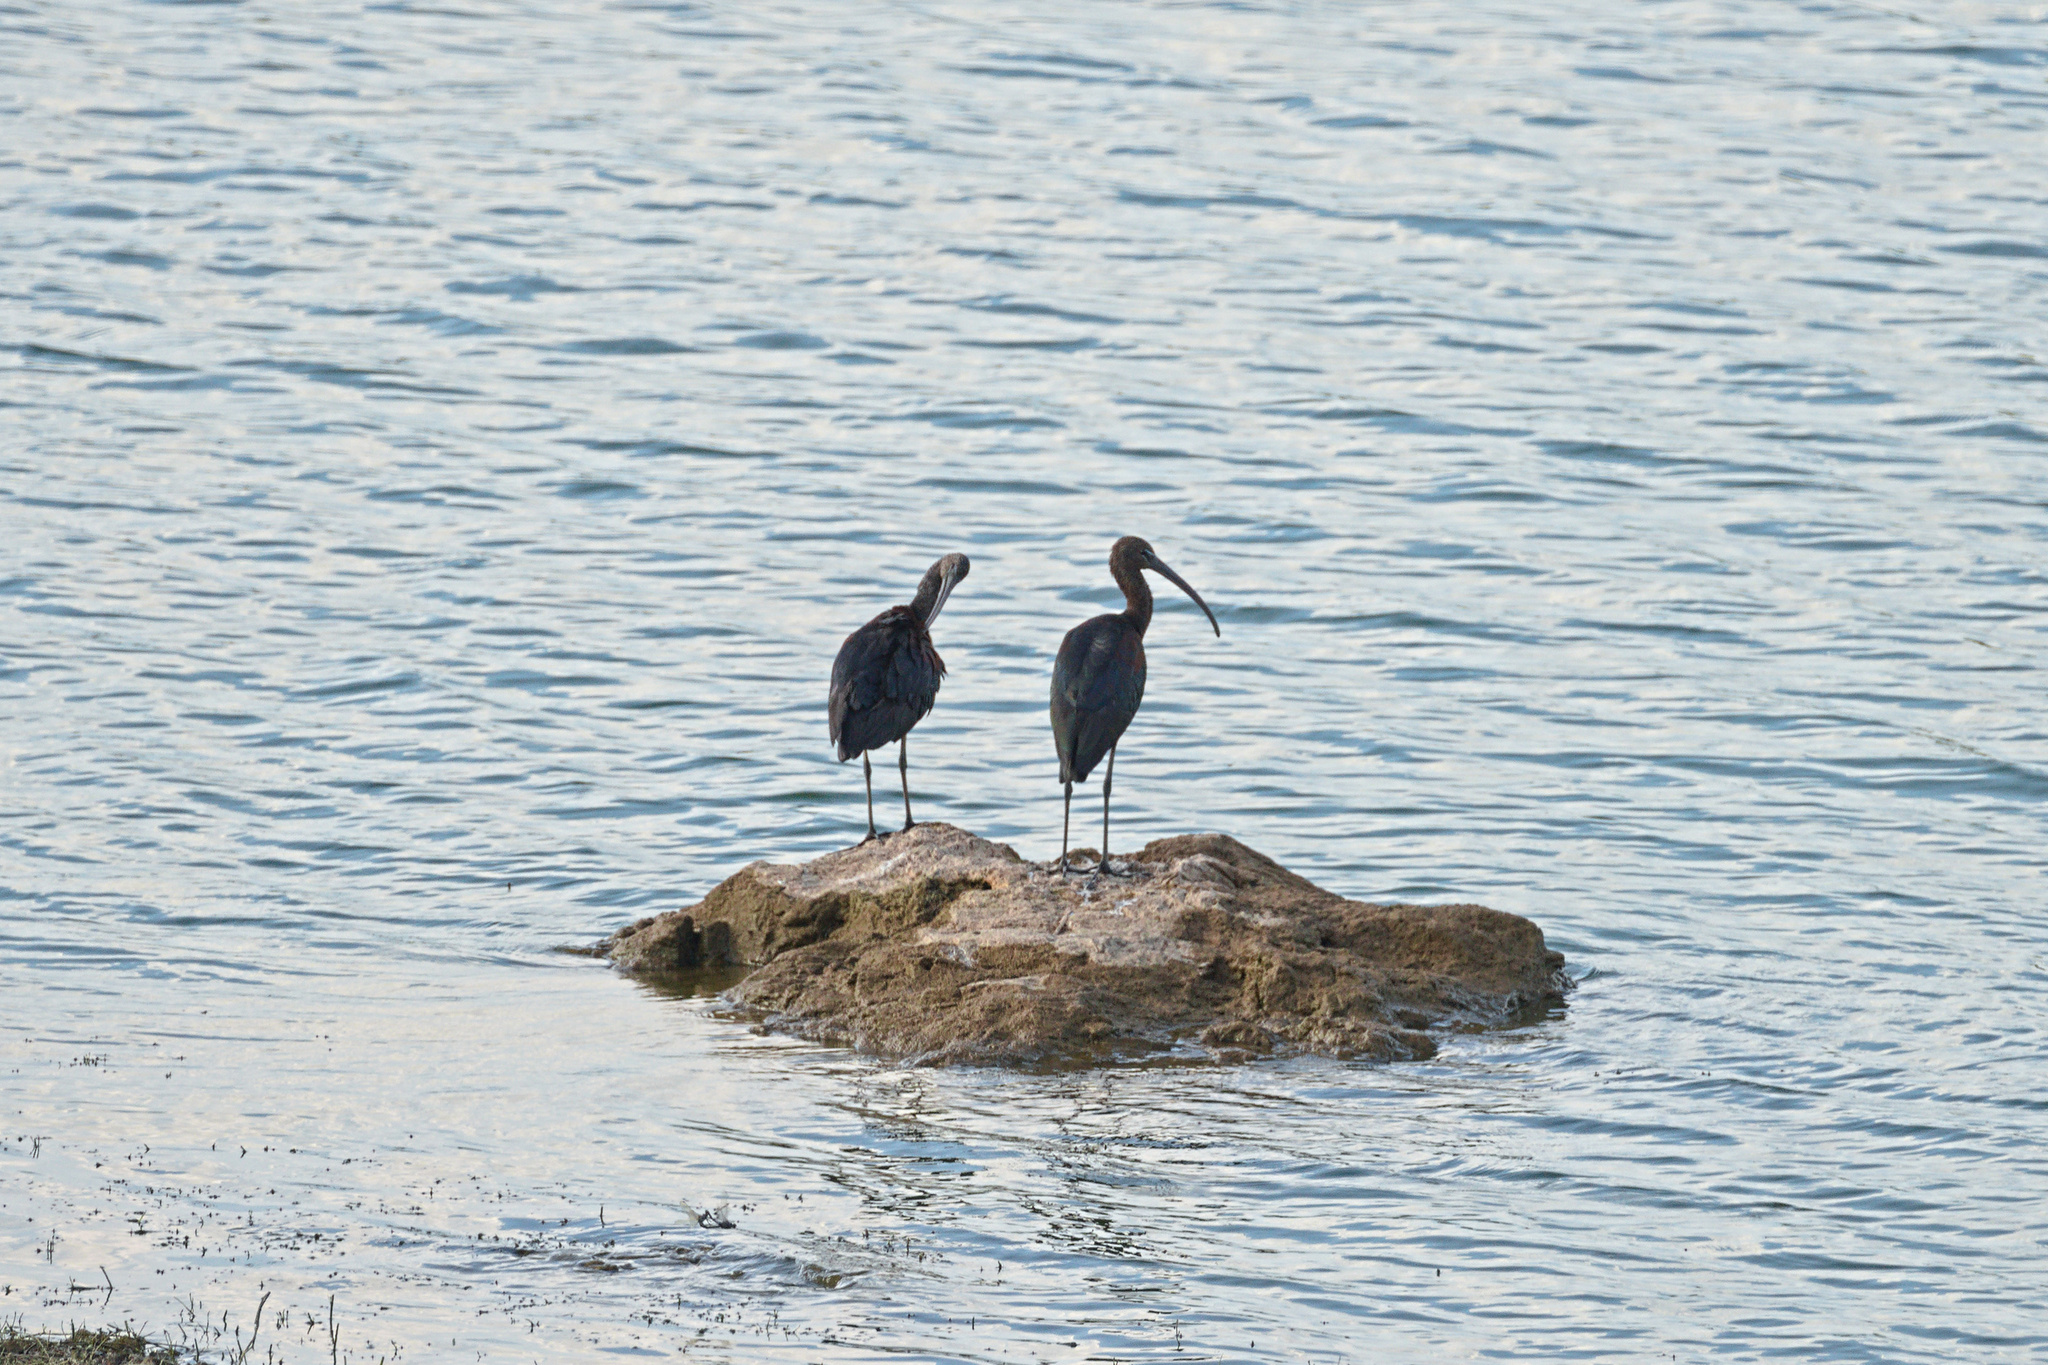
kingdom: Animalia
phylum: Chordata
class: Aves
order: Pelecaniformes
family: Threskiornithidae
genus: Plegadis
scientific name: Plegadis falcinellus
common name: Glossy ibis
